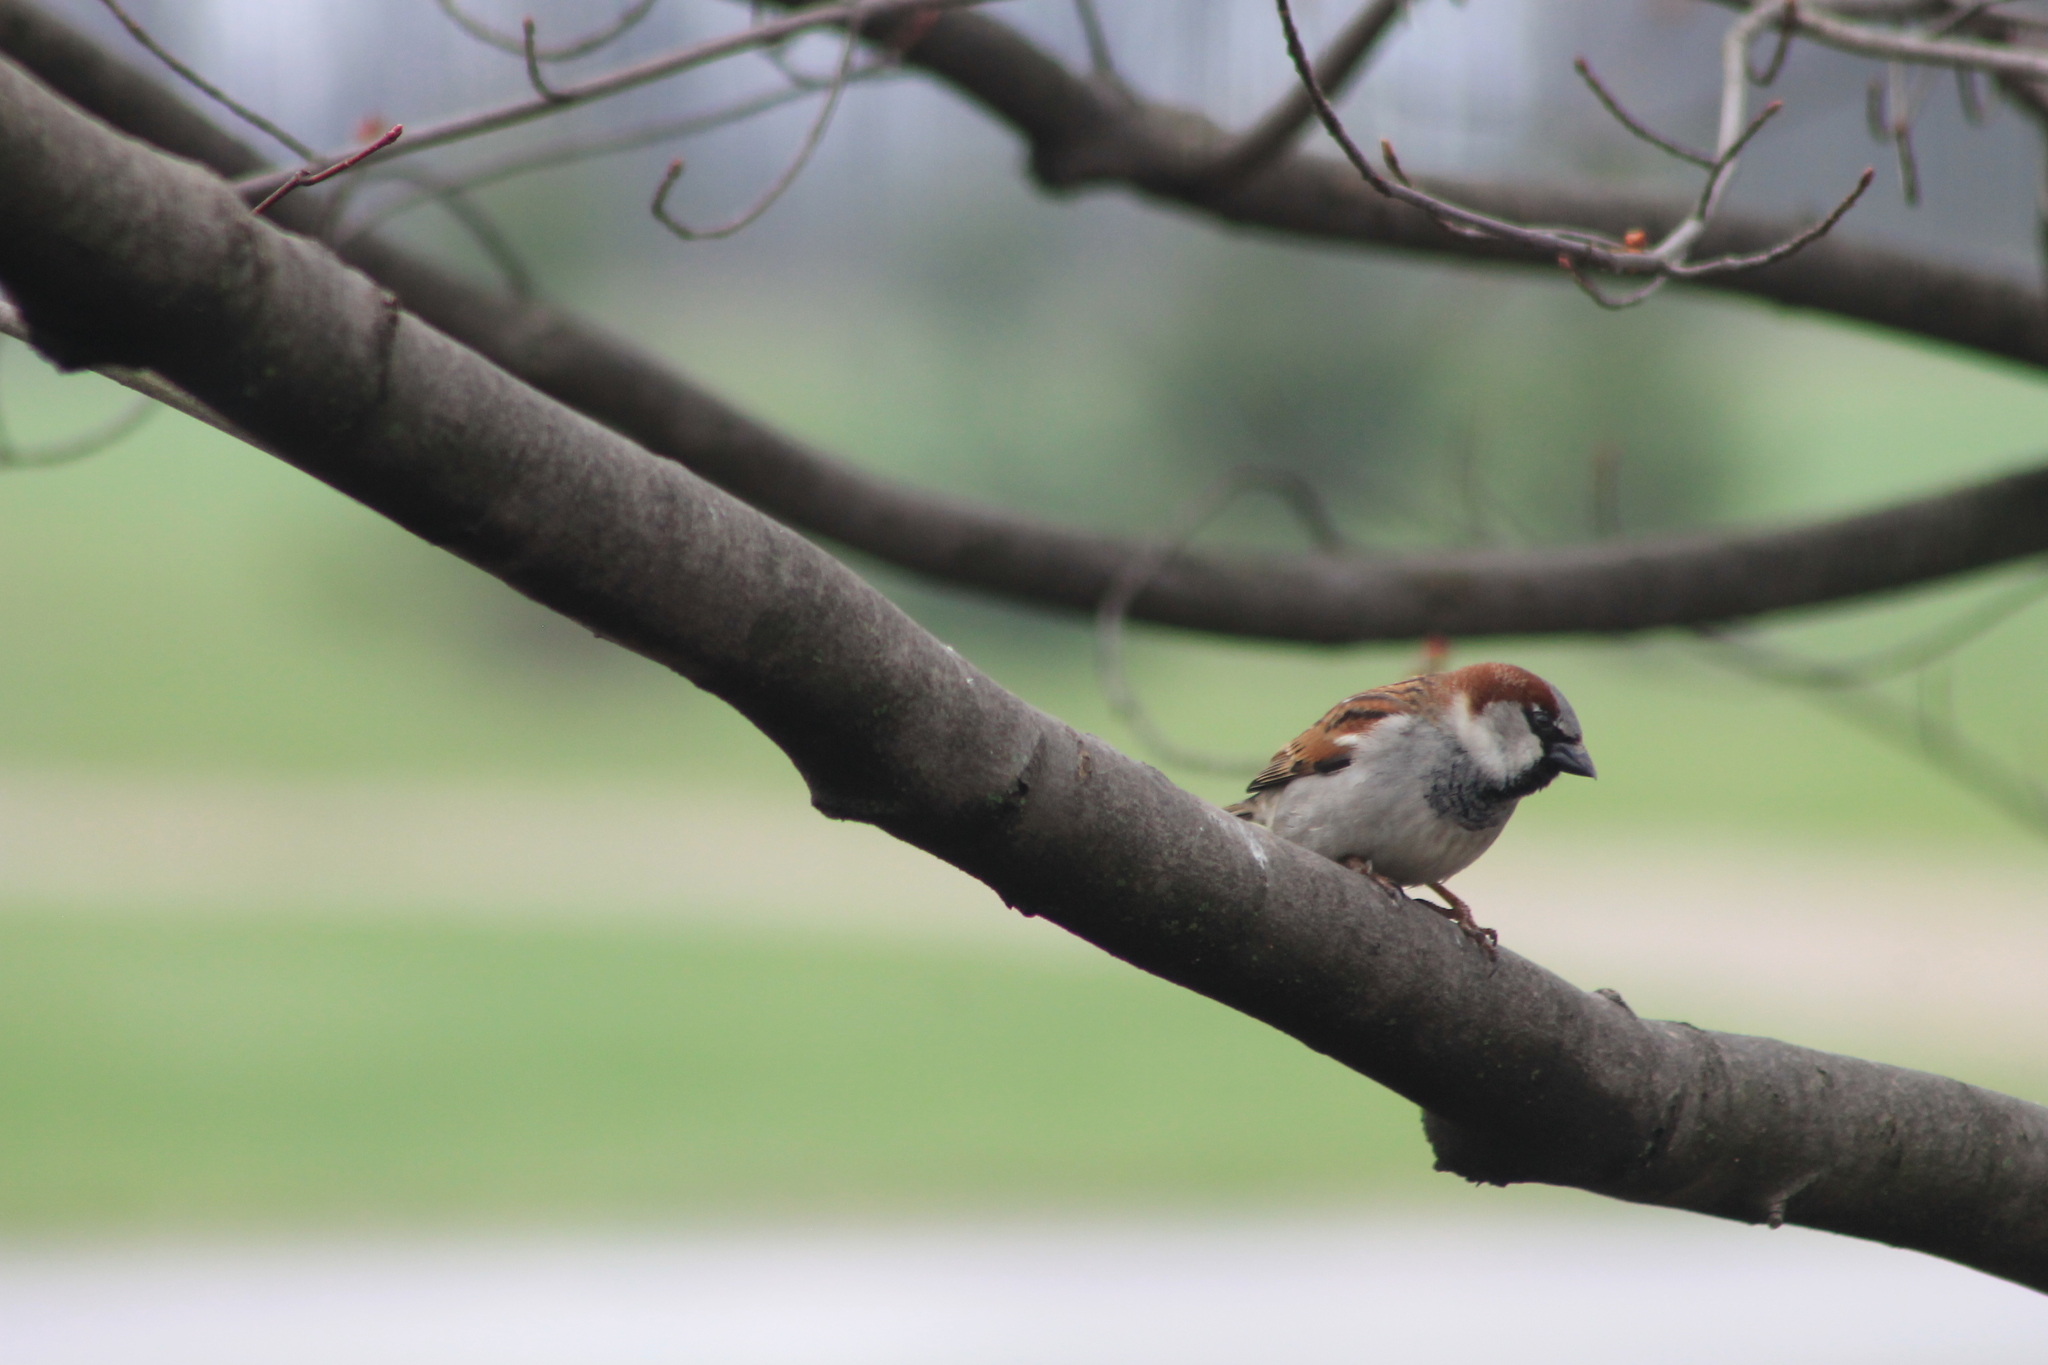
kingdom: Animalia
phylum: Chordata
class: Aves
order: Passeriformes
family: Passeridae
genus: Passer
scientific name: Passer domesticus
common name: House sparrow
